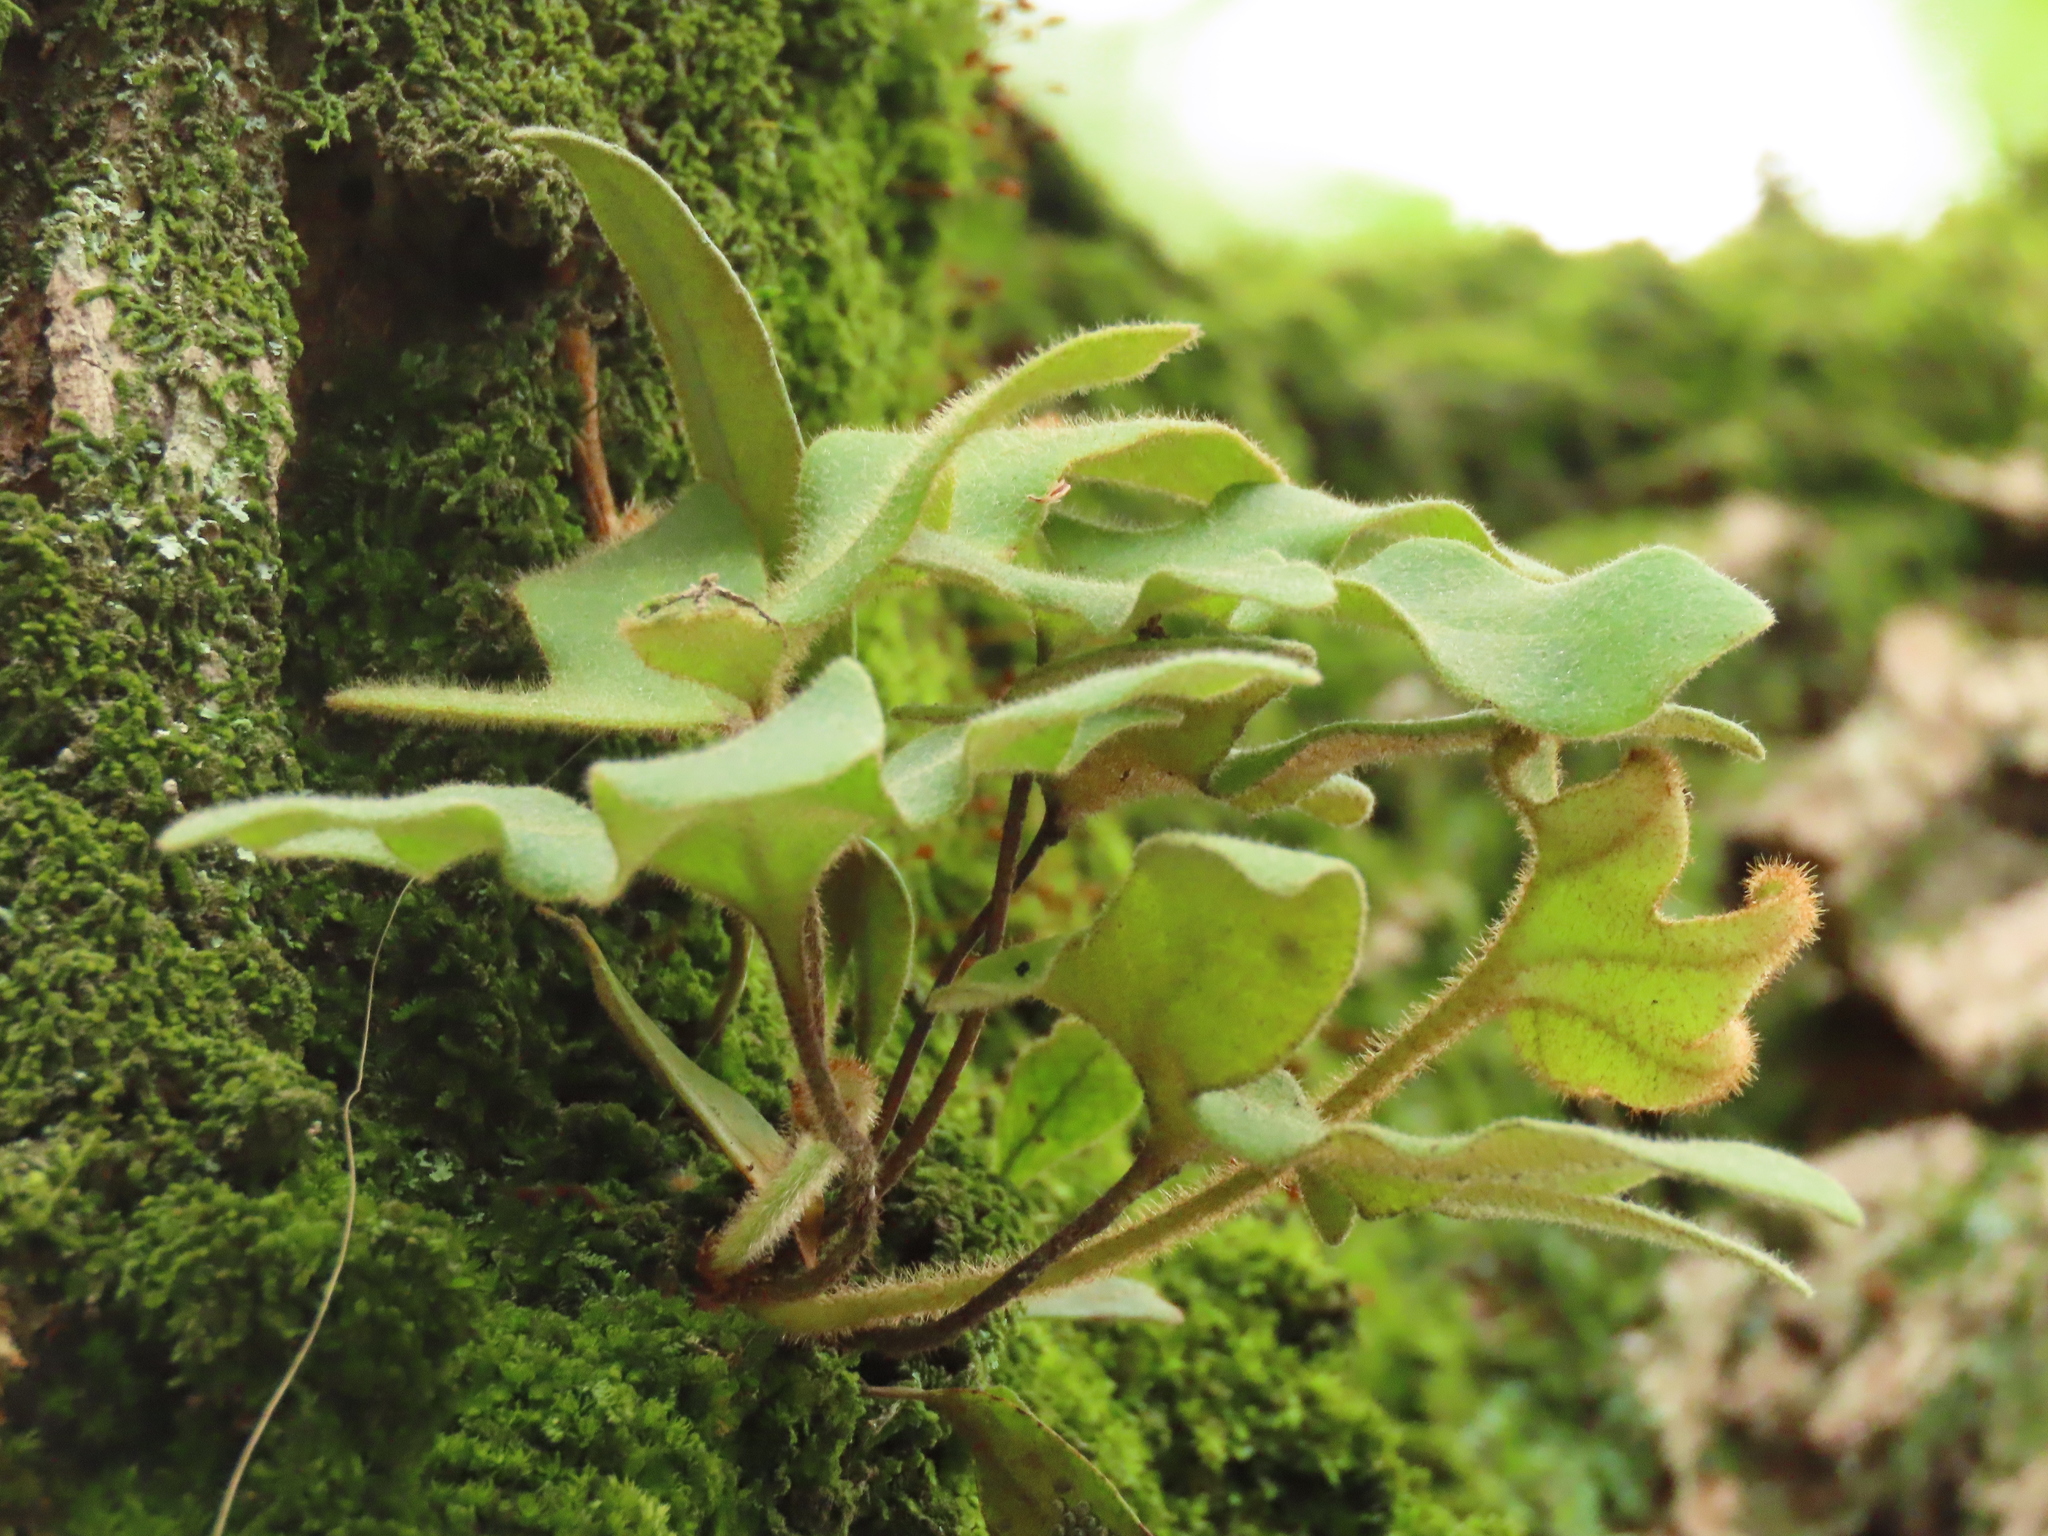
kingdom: Plantae
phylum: Tracheophyta
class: Polypodiopsida
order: Polypodiales
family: Polypodiaceae
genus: Pyrrosia
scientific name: Pyrrosia polydactyla
